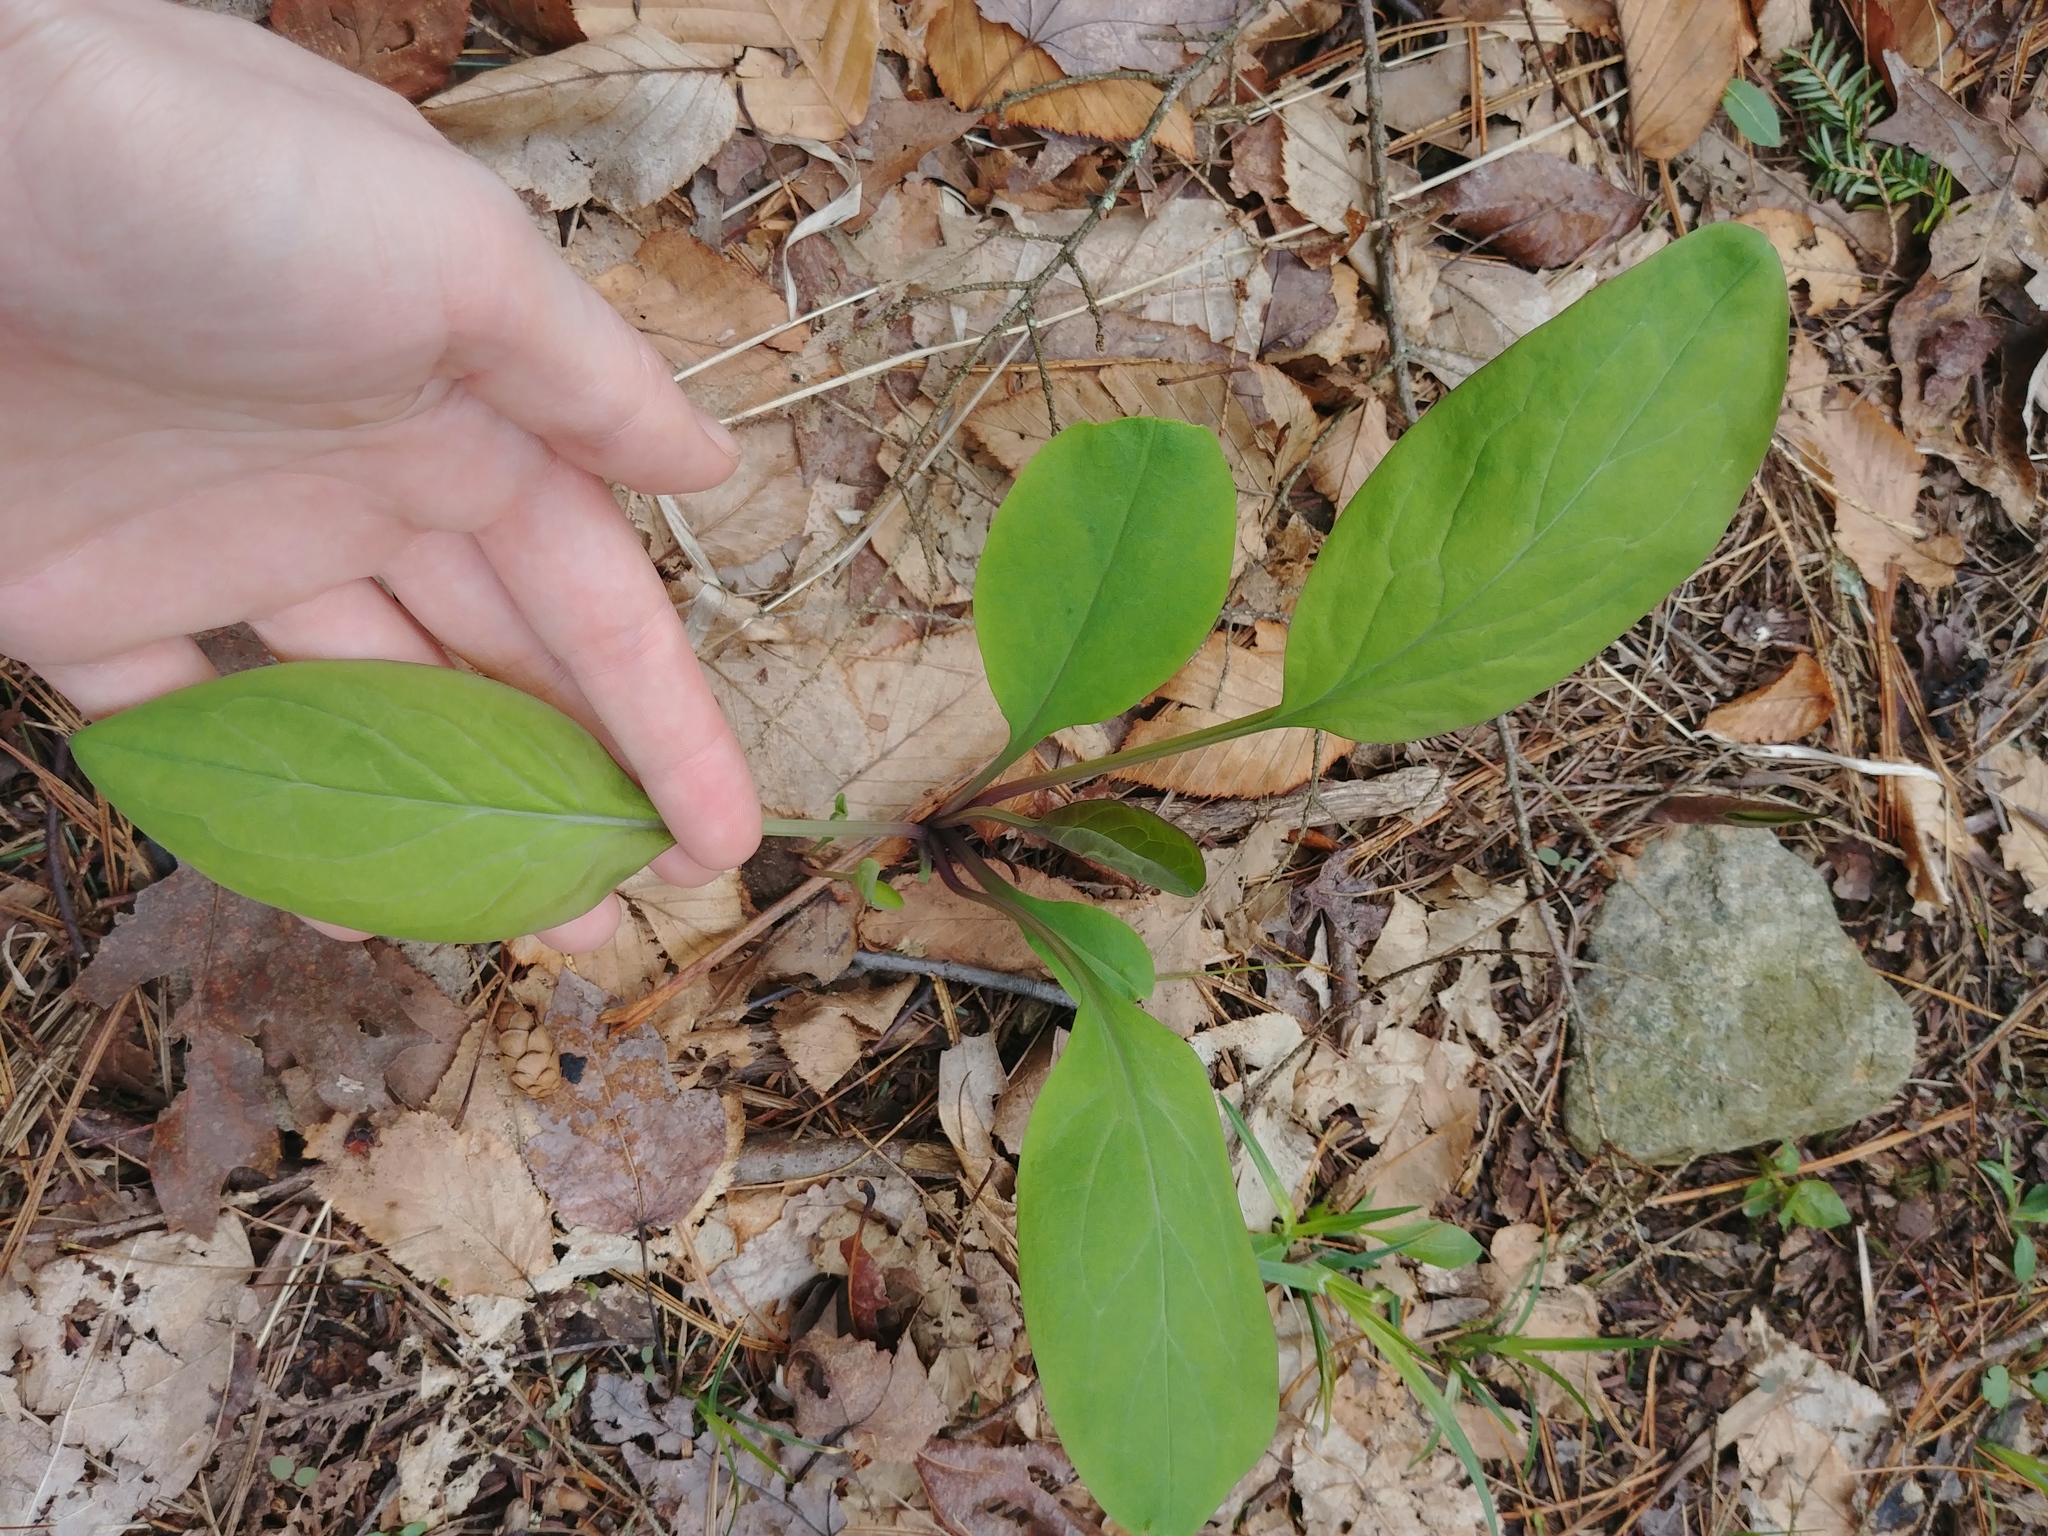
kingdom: Plantae
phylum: Tracheophyta
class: Magnoliopsida
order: Boraginales
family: Boraginaceae
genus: Mertensia
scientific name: Mertensia virginica
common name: Virginia bluebells
